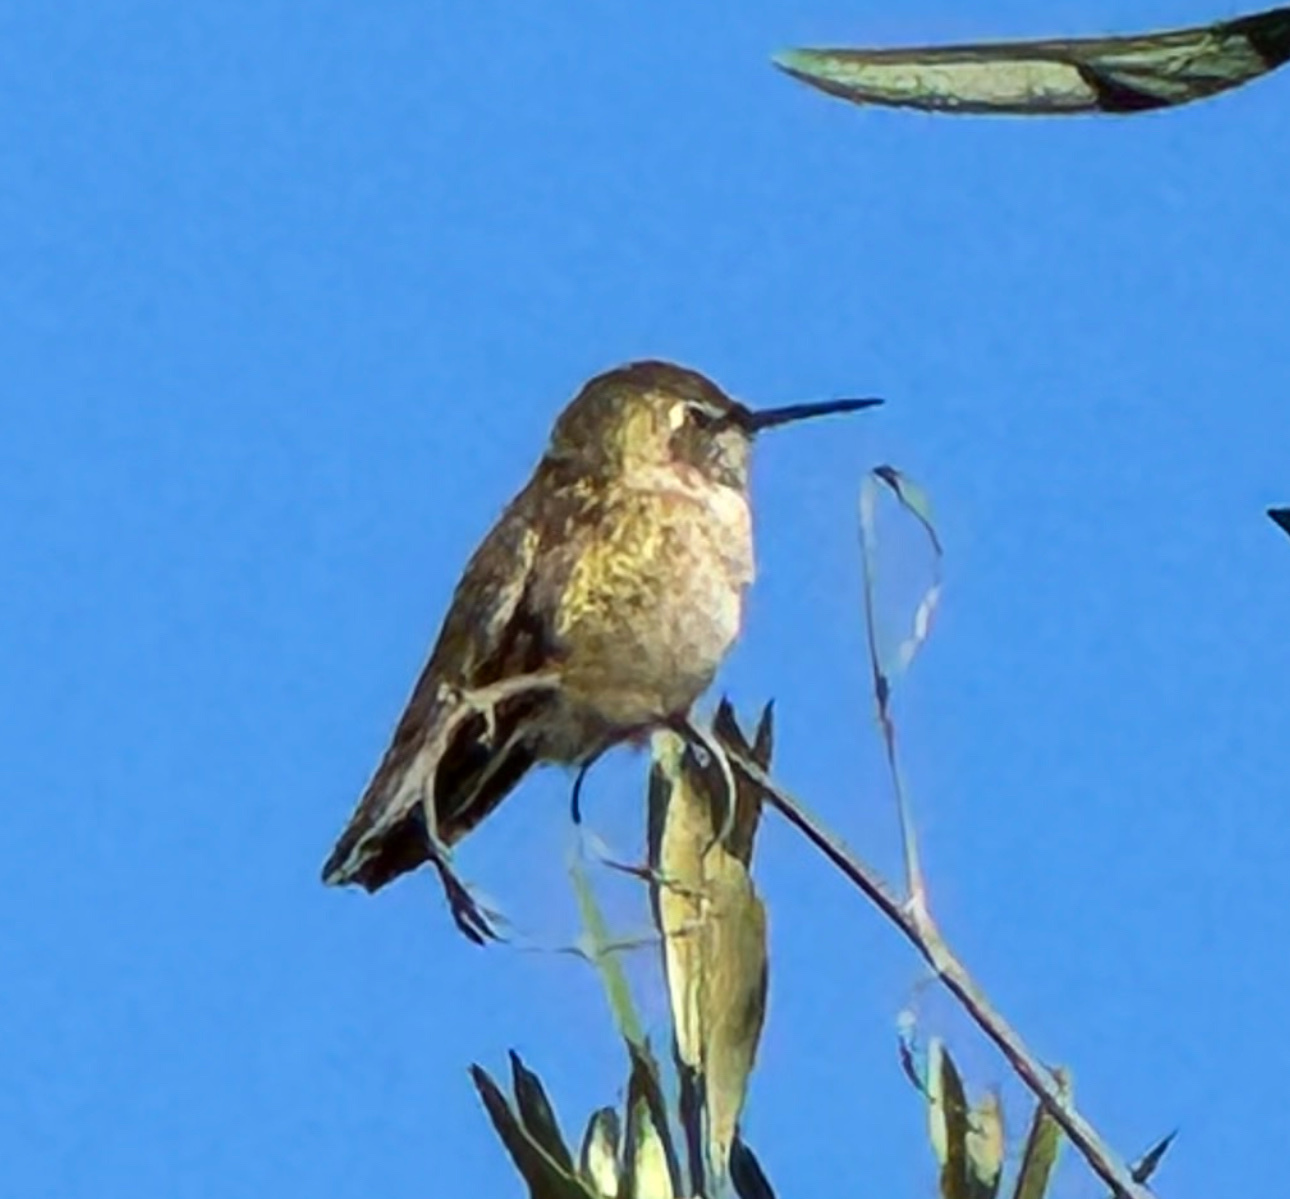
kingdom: Animalia
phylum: Chordata
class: Aves
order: Apodiformes
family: Trochilidae
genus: Calypte
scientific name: Calypte anna
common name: Anna's hummingbird
